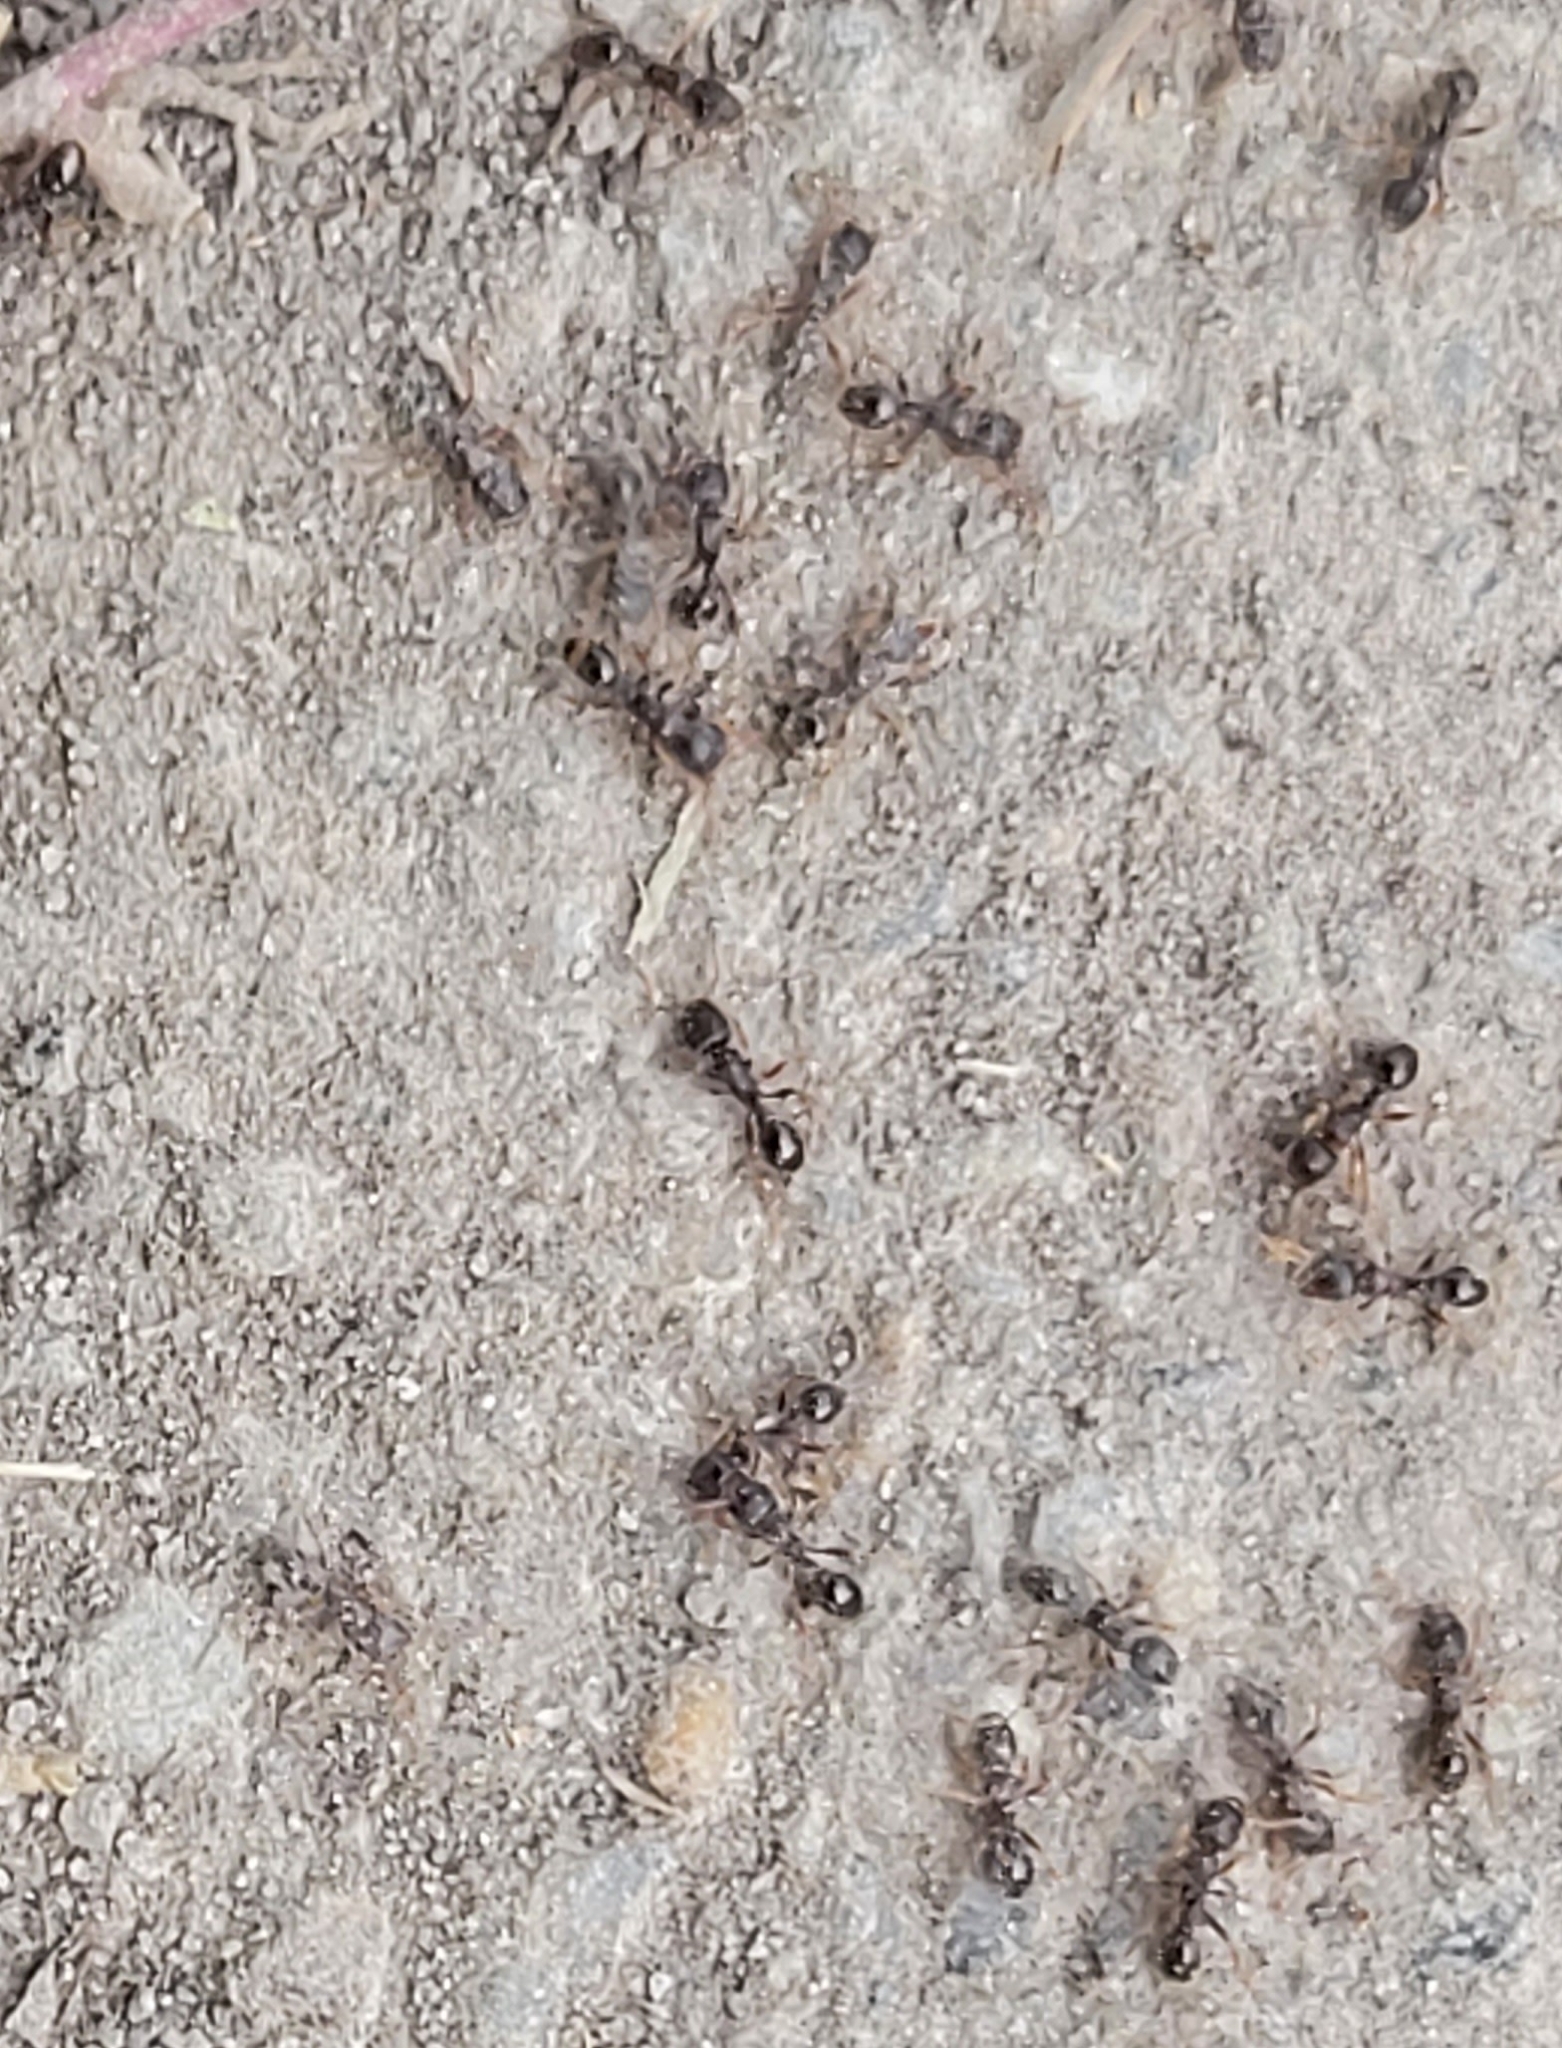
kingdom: Animalia
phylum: Arthropoda
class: Insecta
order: Hymenoptera
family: Formicidae
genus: Tetramorium
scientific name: Tetramorium immigrans
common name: Pavement ant
